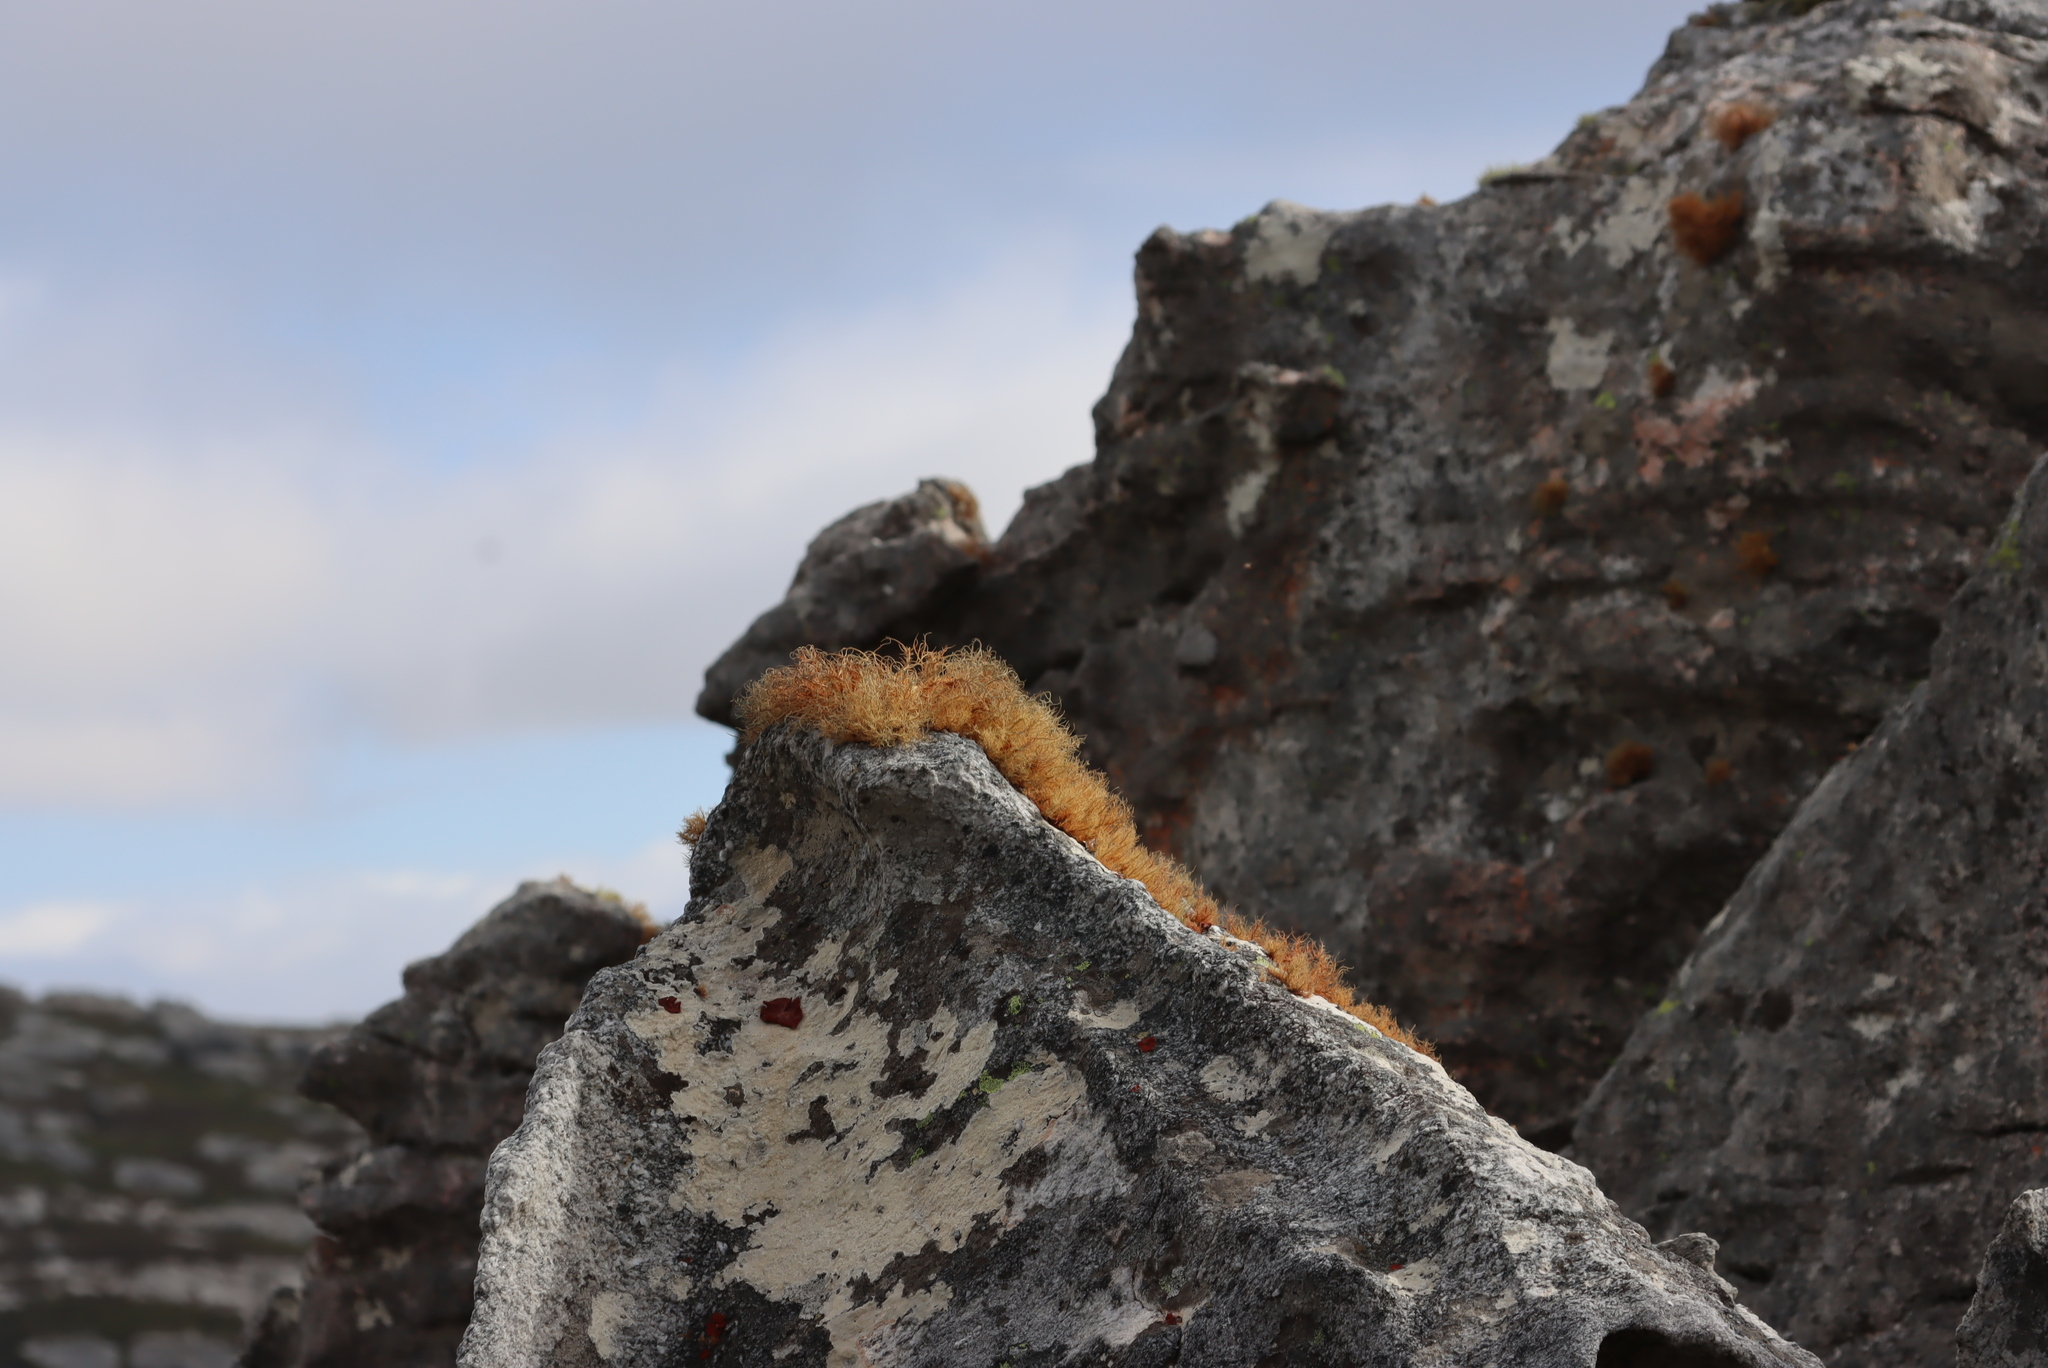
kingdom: Fungi
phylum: Ascomycota
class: Lecanoromycetes
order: Lecanorales
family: Parmeliaceae
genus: Usnea
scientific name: Usnea maculata
